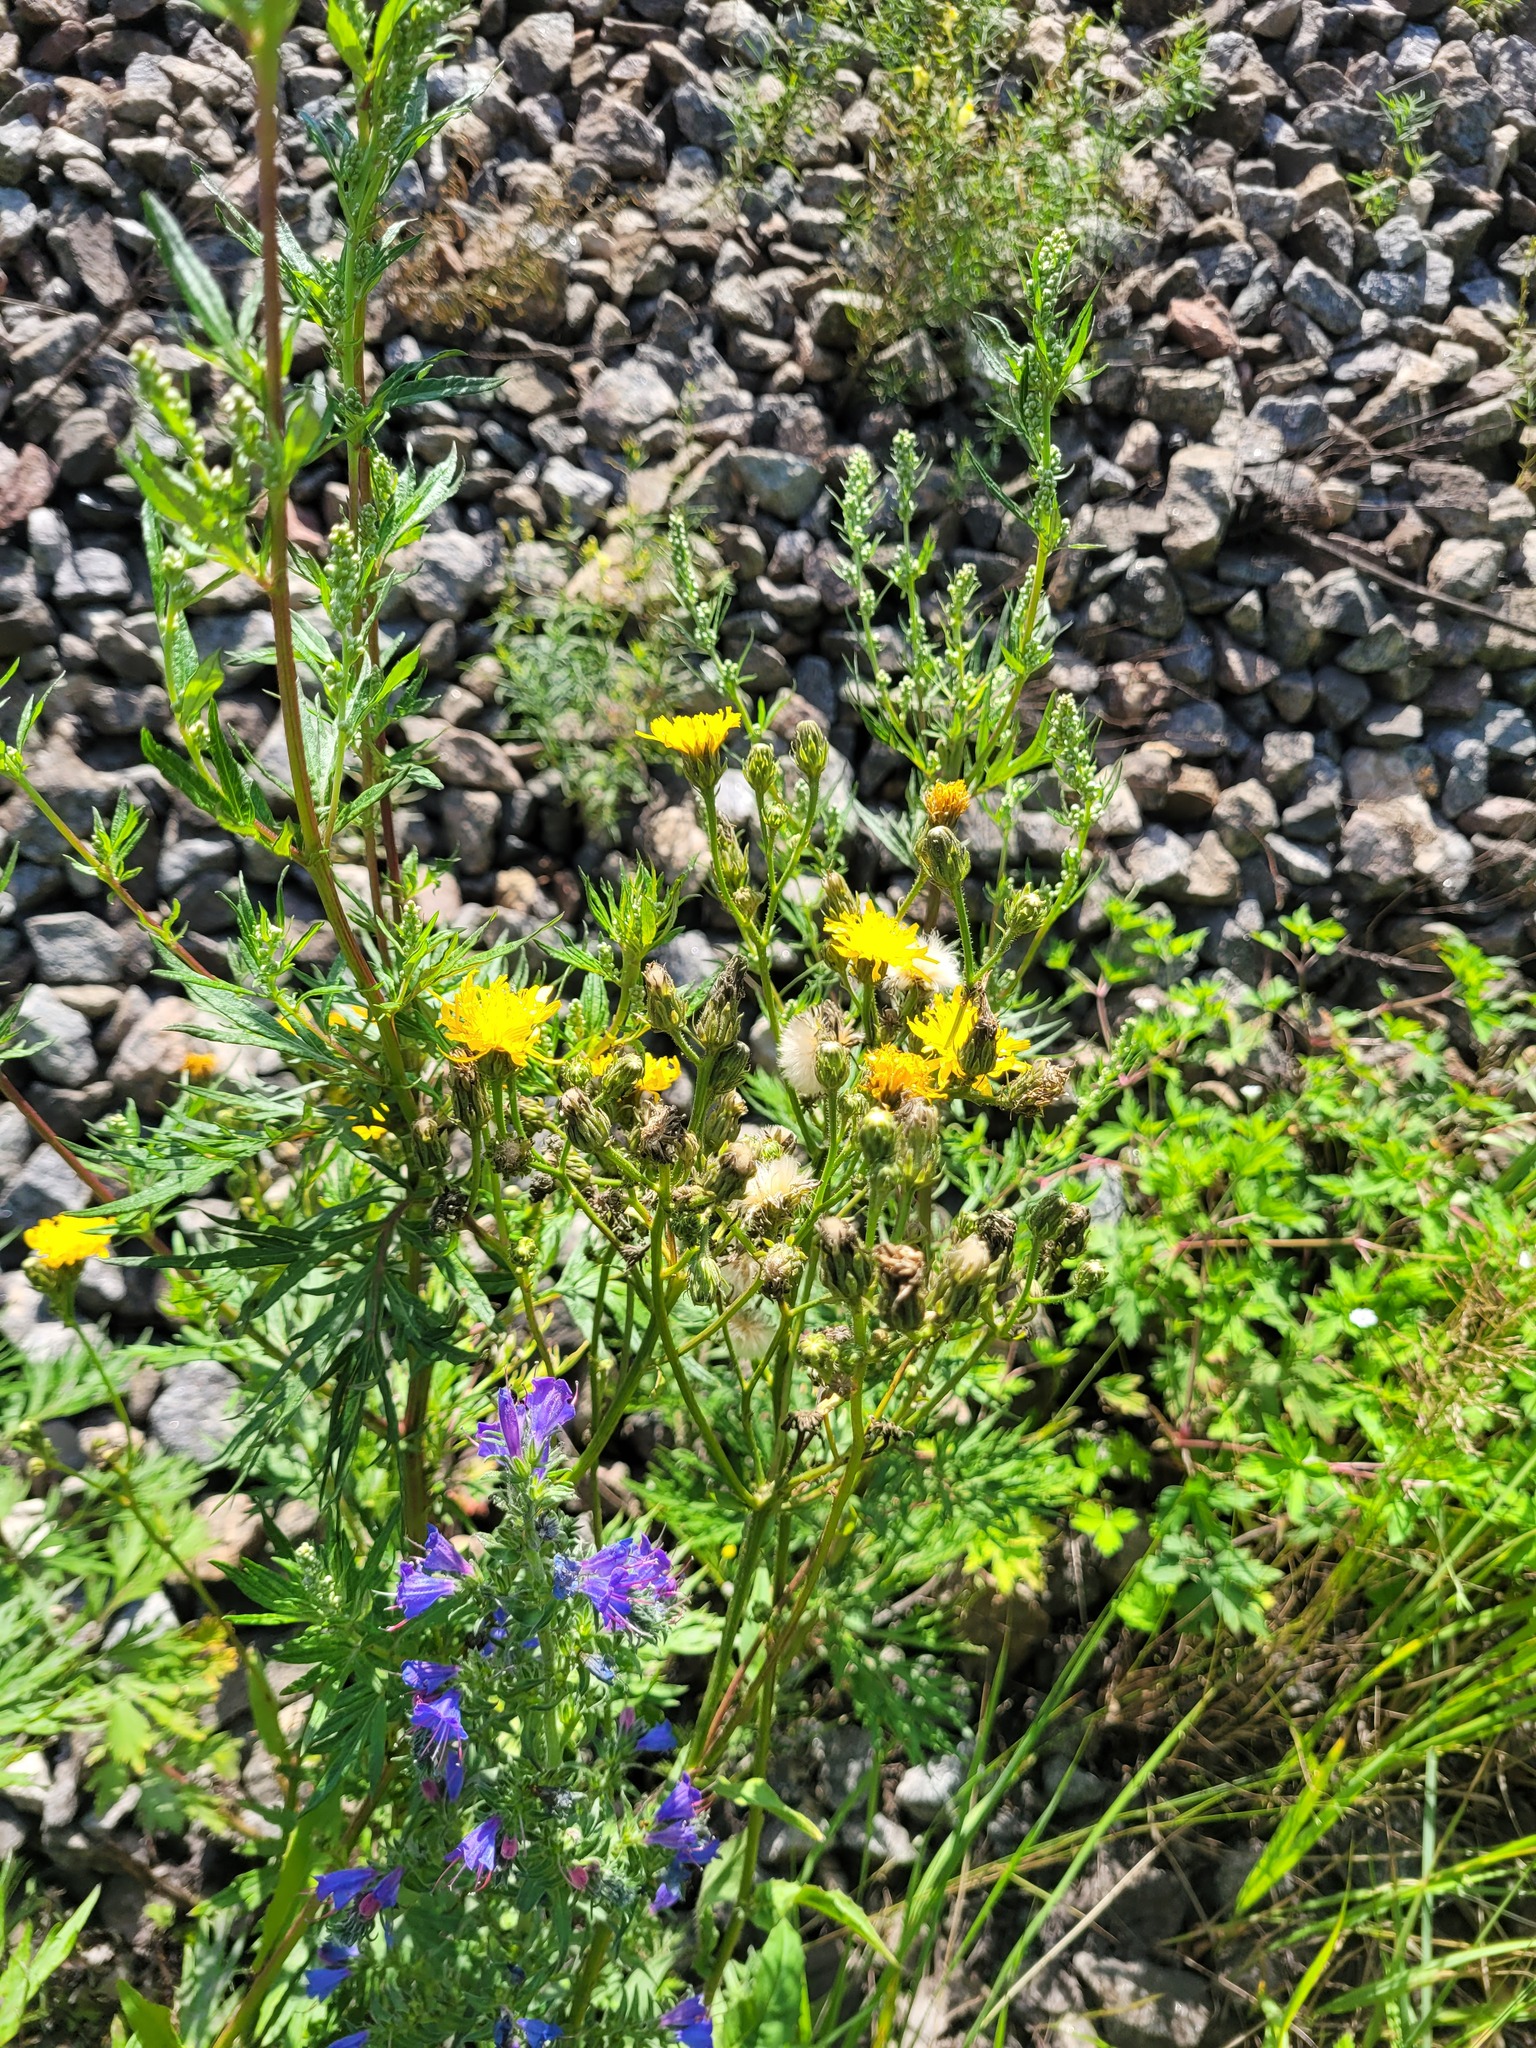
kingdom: Plantae
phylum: Tracheophyta
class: Magnoliopsida
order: Asterales
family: Asteraceae
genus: Picris
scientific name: Picris hieracioides
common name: Hawkweed oxtongue
